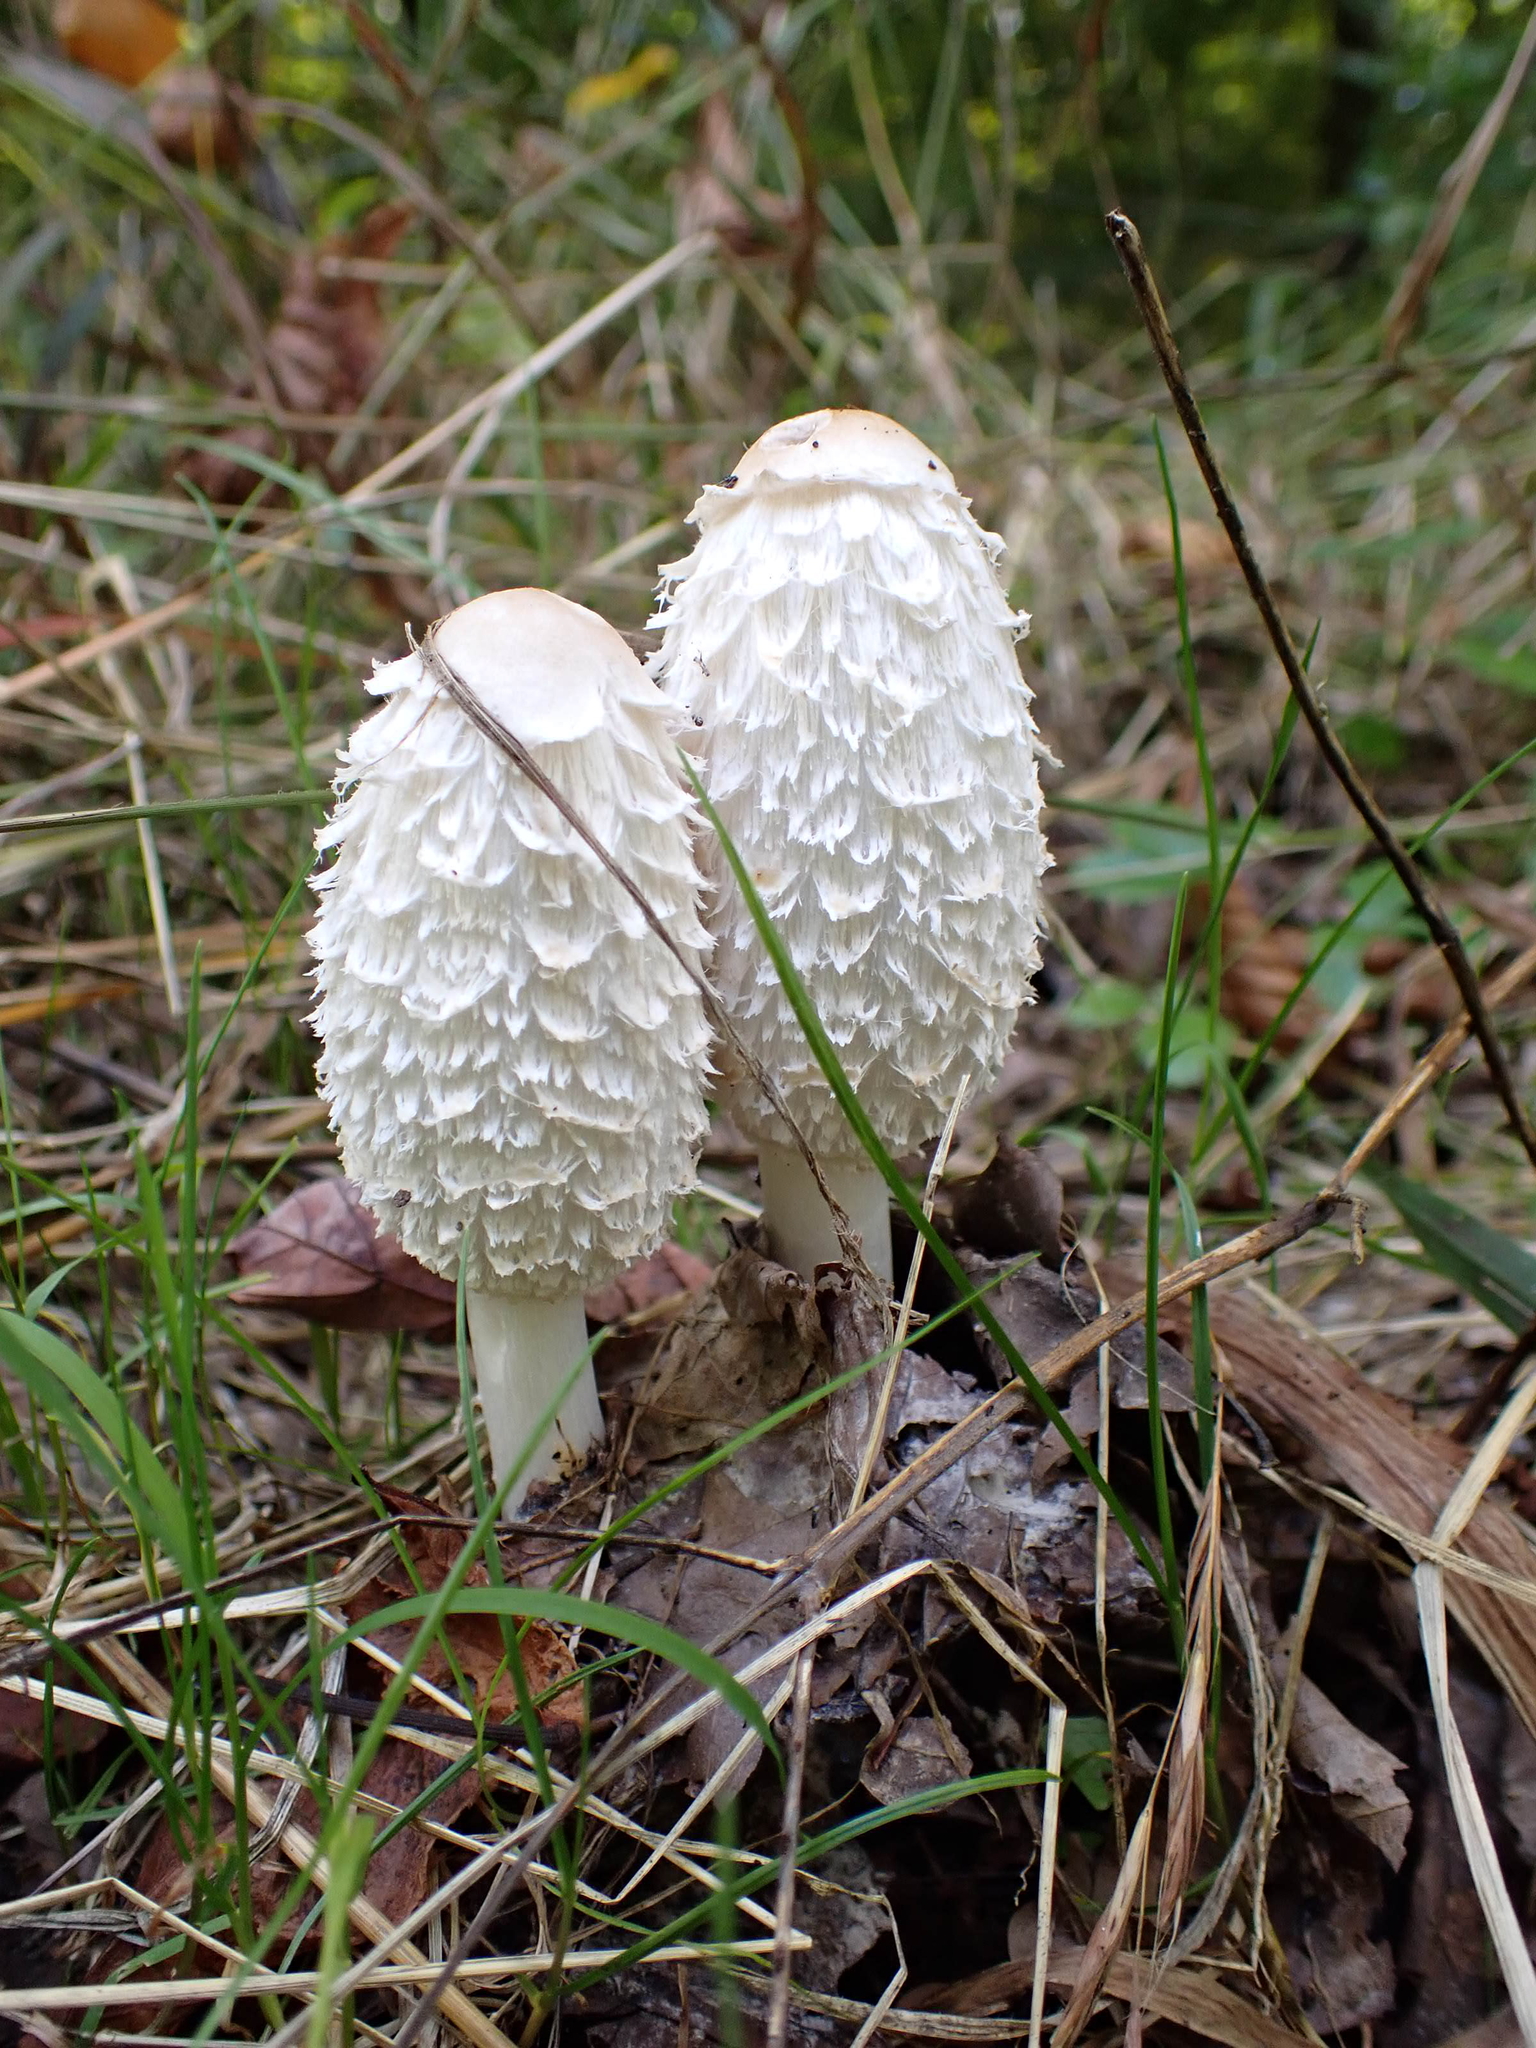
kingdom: Fungi
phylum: Basidiomycota
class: Agaricomycetes
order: Agaricales
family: Agaricaceae
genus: Coprinus
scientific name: Coprinus comatus
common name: Lawyer's wig
